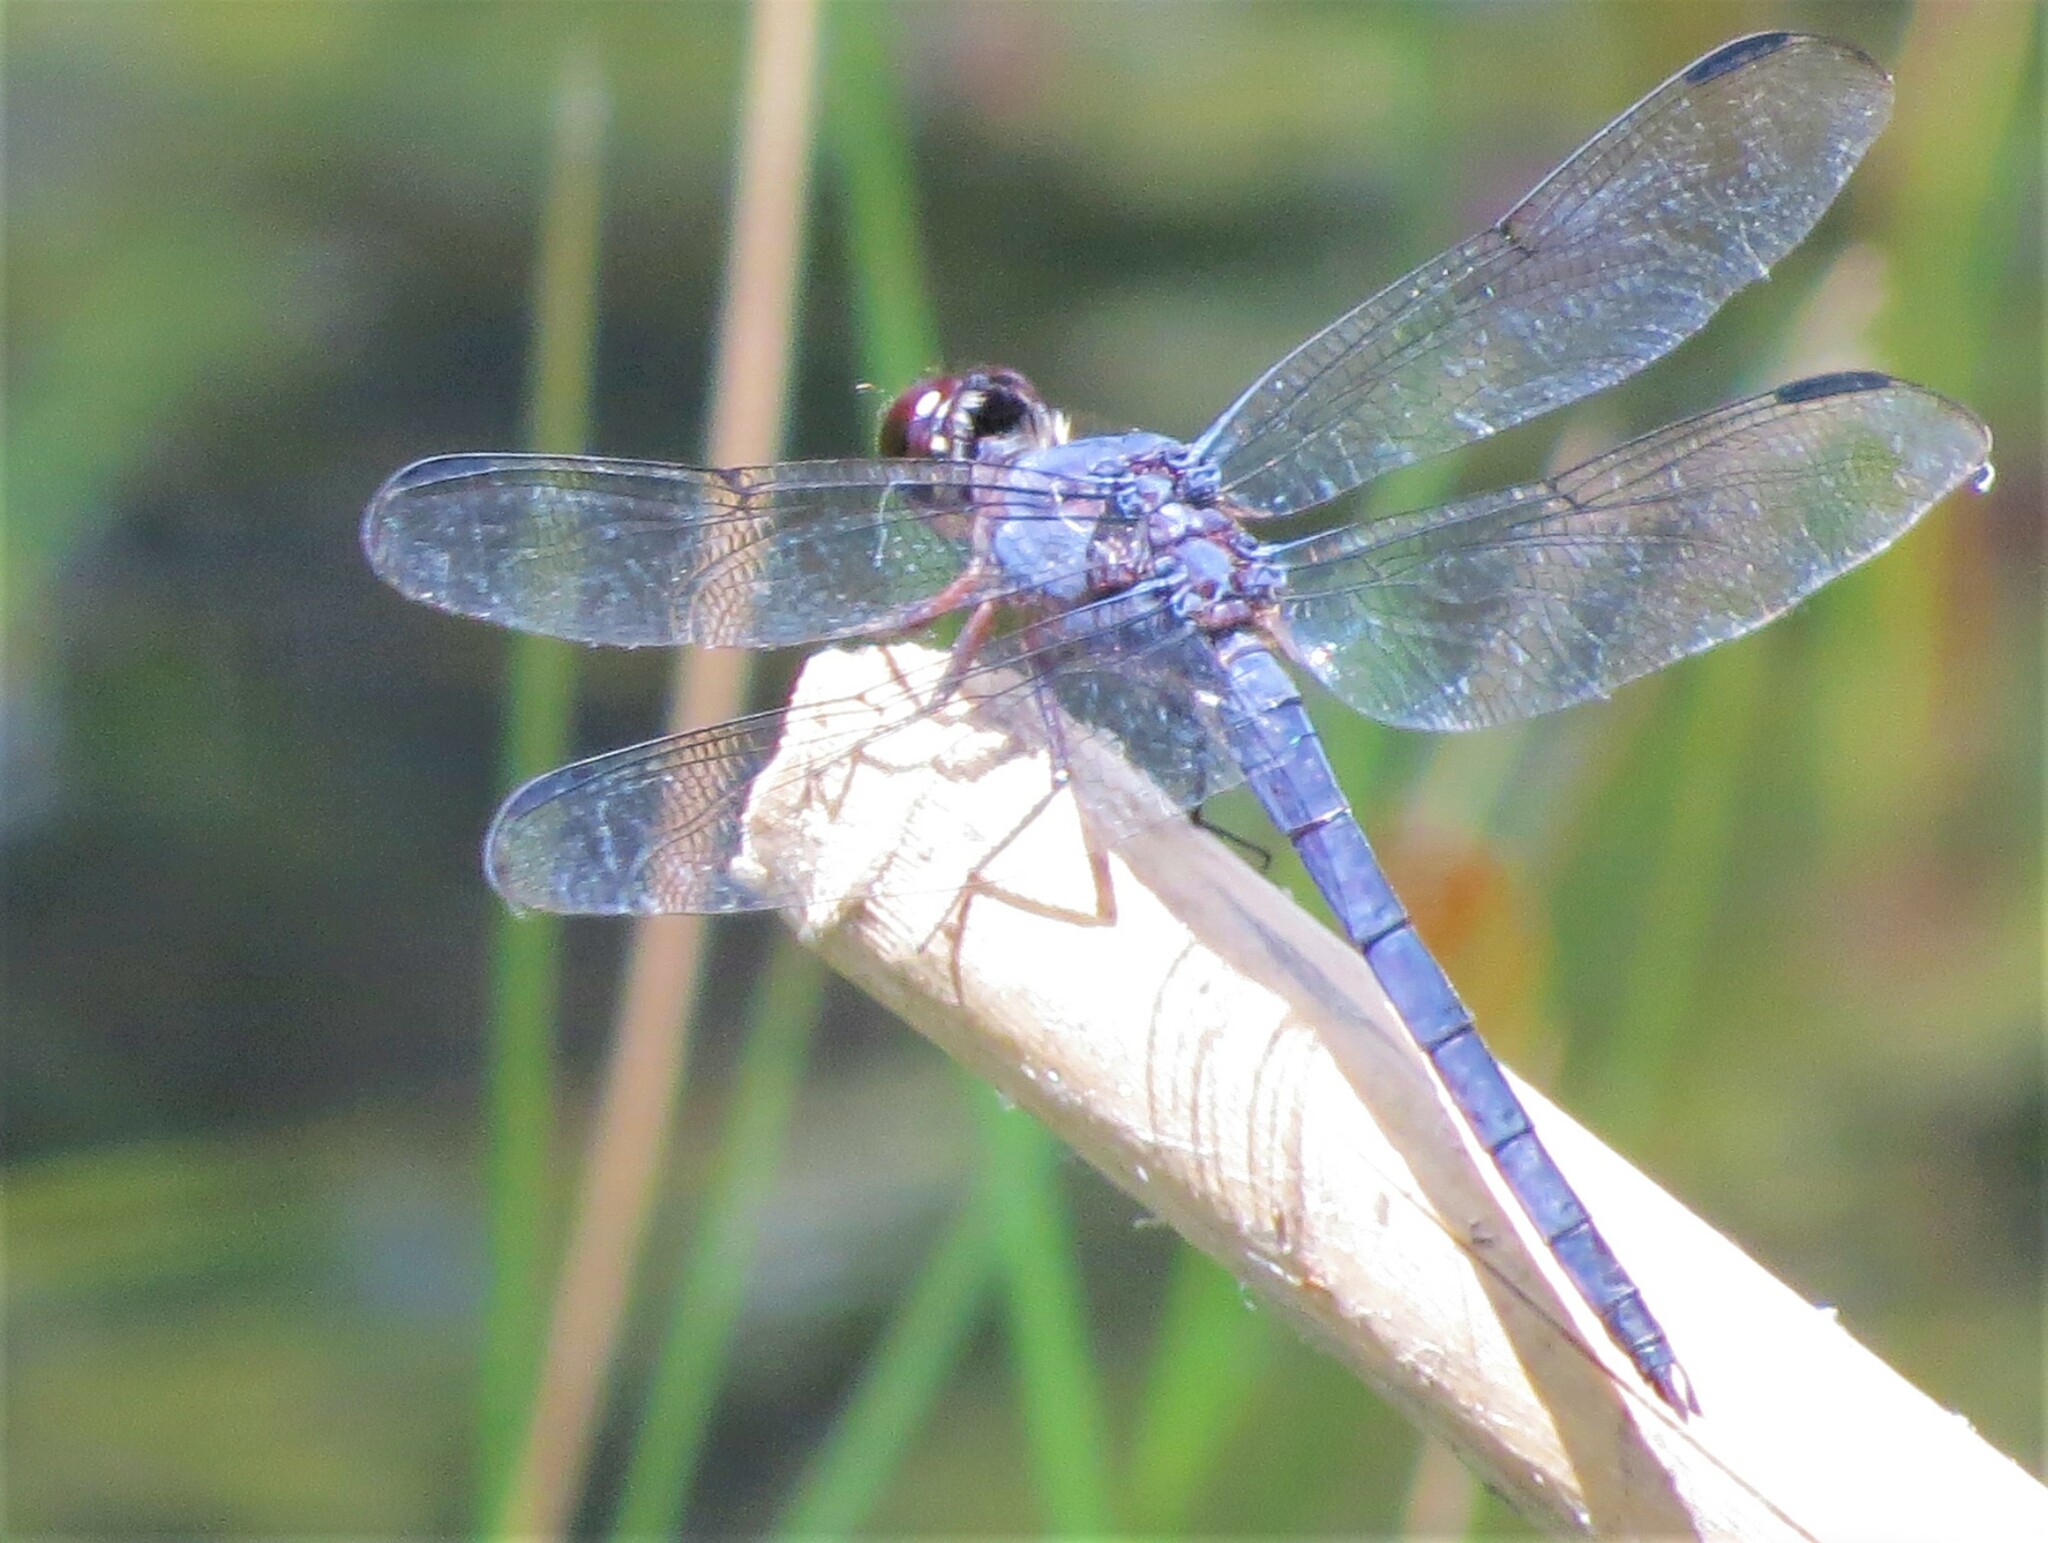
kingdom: Animalia
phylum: Arthropoda
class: Insecta
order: Odonata
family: Libellulidae
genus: Libellula
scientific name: Libellula incesta
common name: Slaty skimmer
